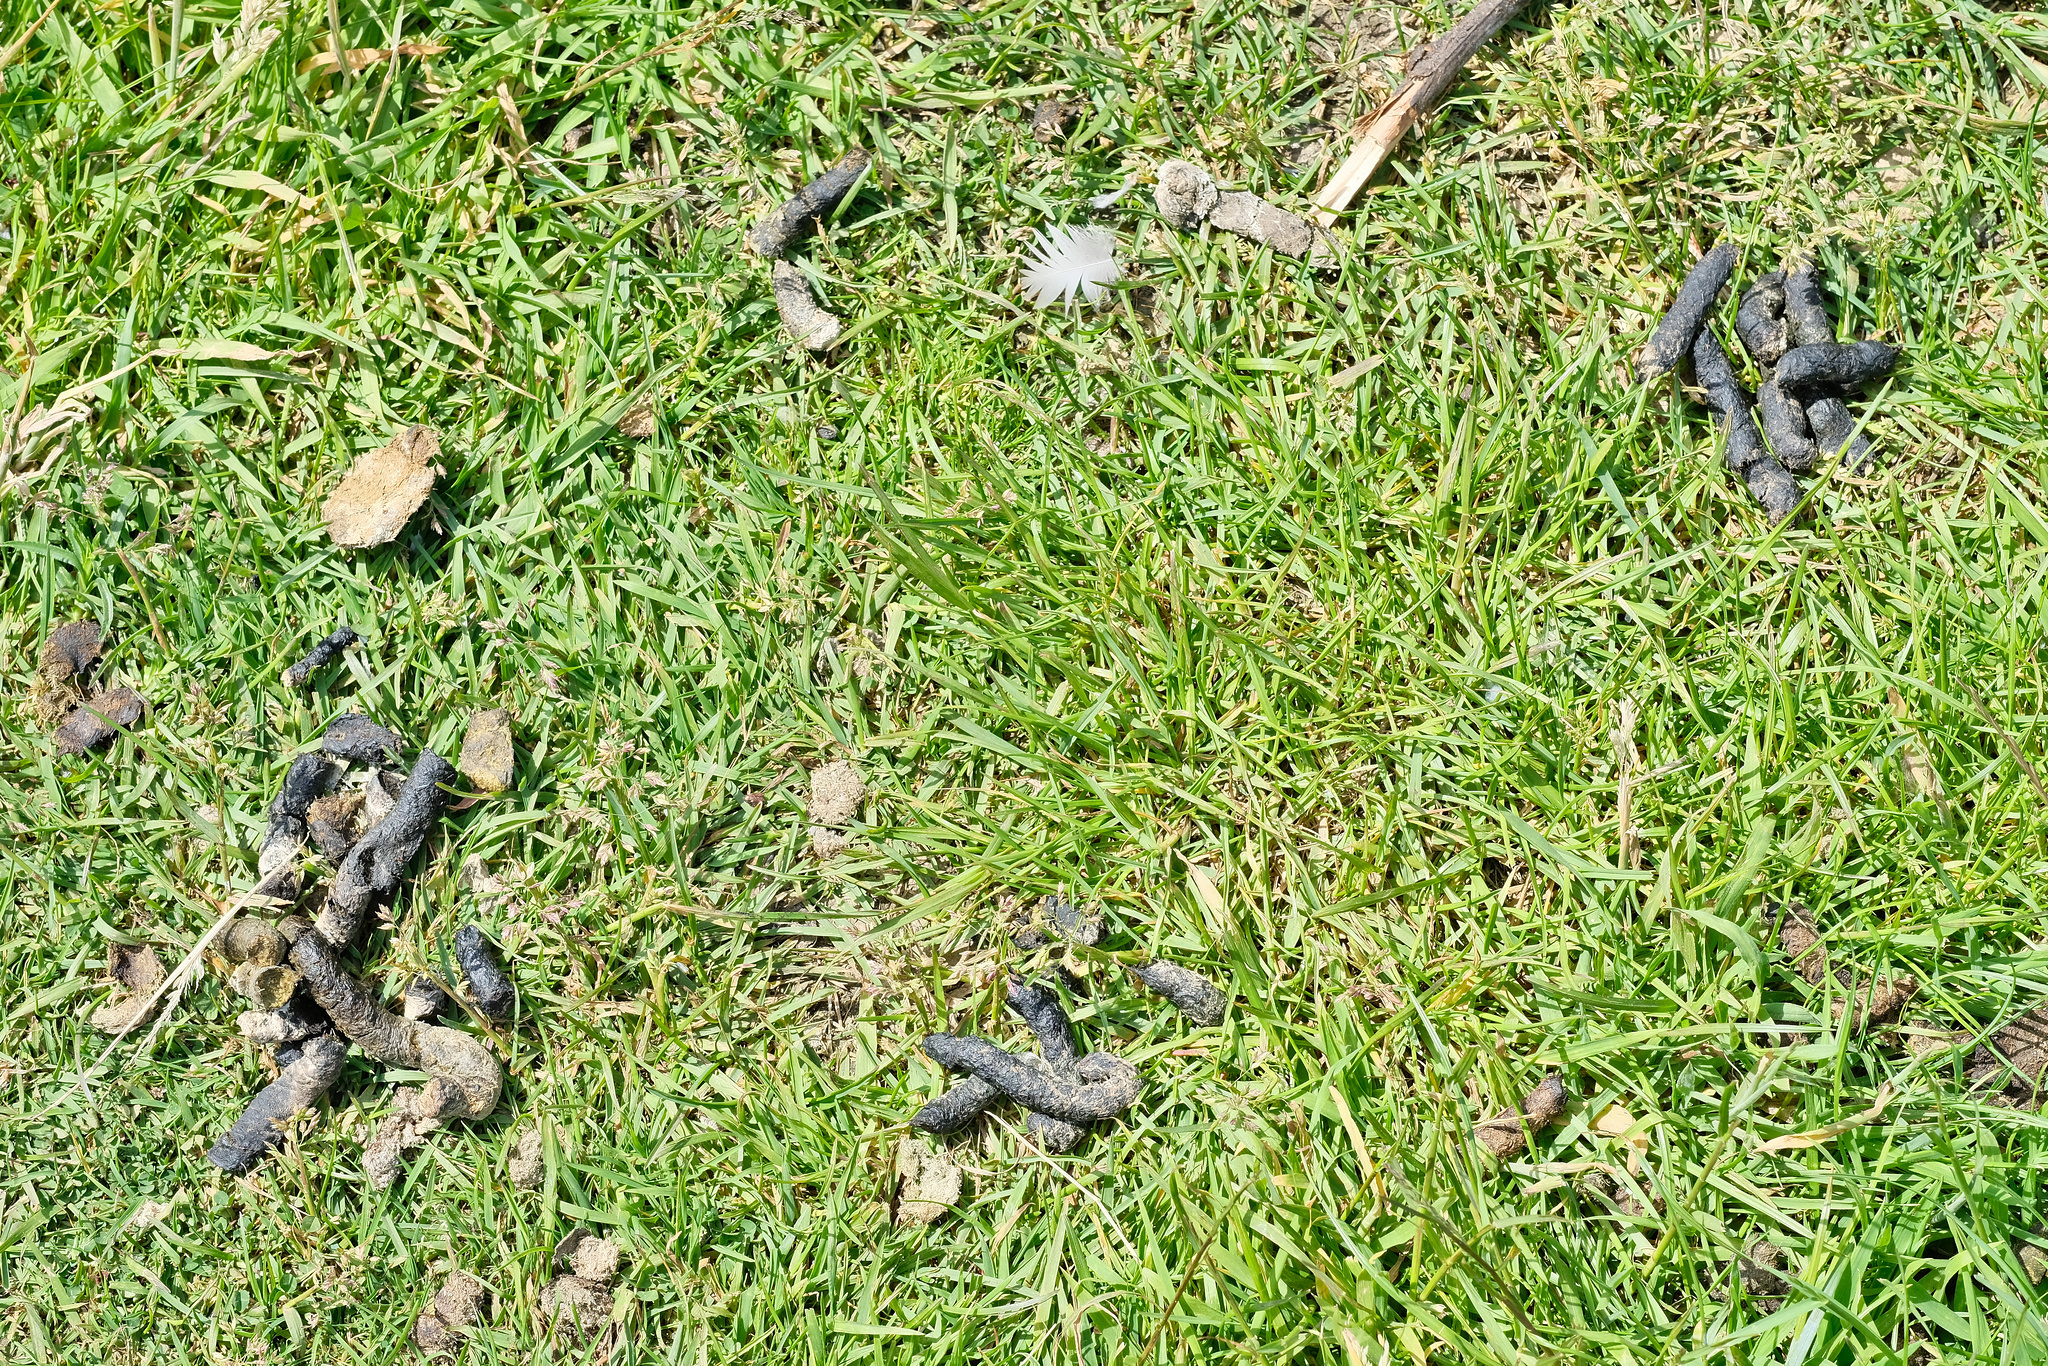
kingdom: Animalia
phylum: Chordata
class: Aves
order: Anseriformes
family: Anatidae
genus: Branta
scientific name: Branta canadensis
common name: Canada goose
